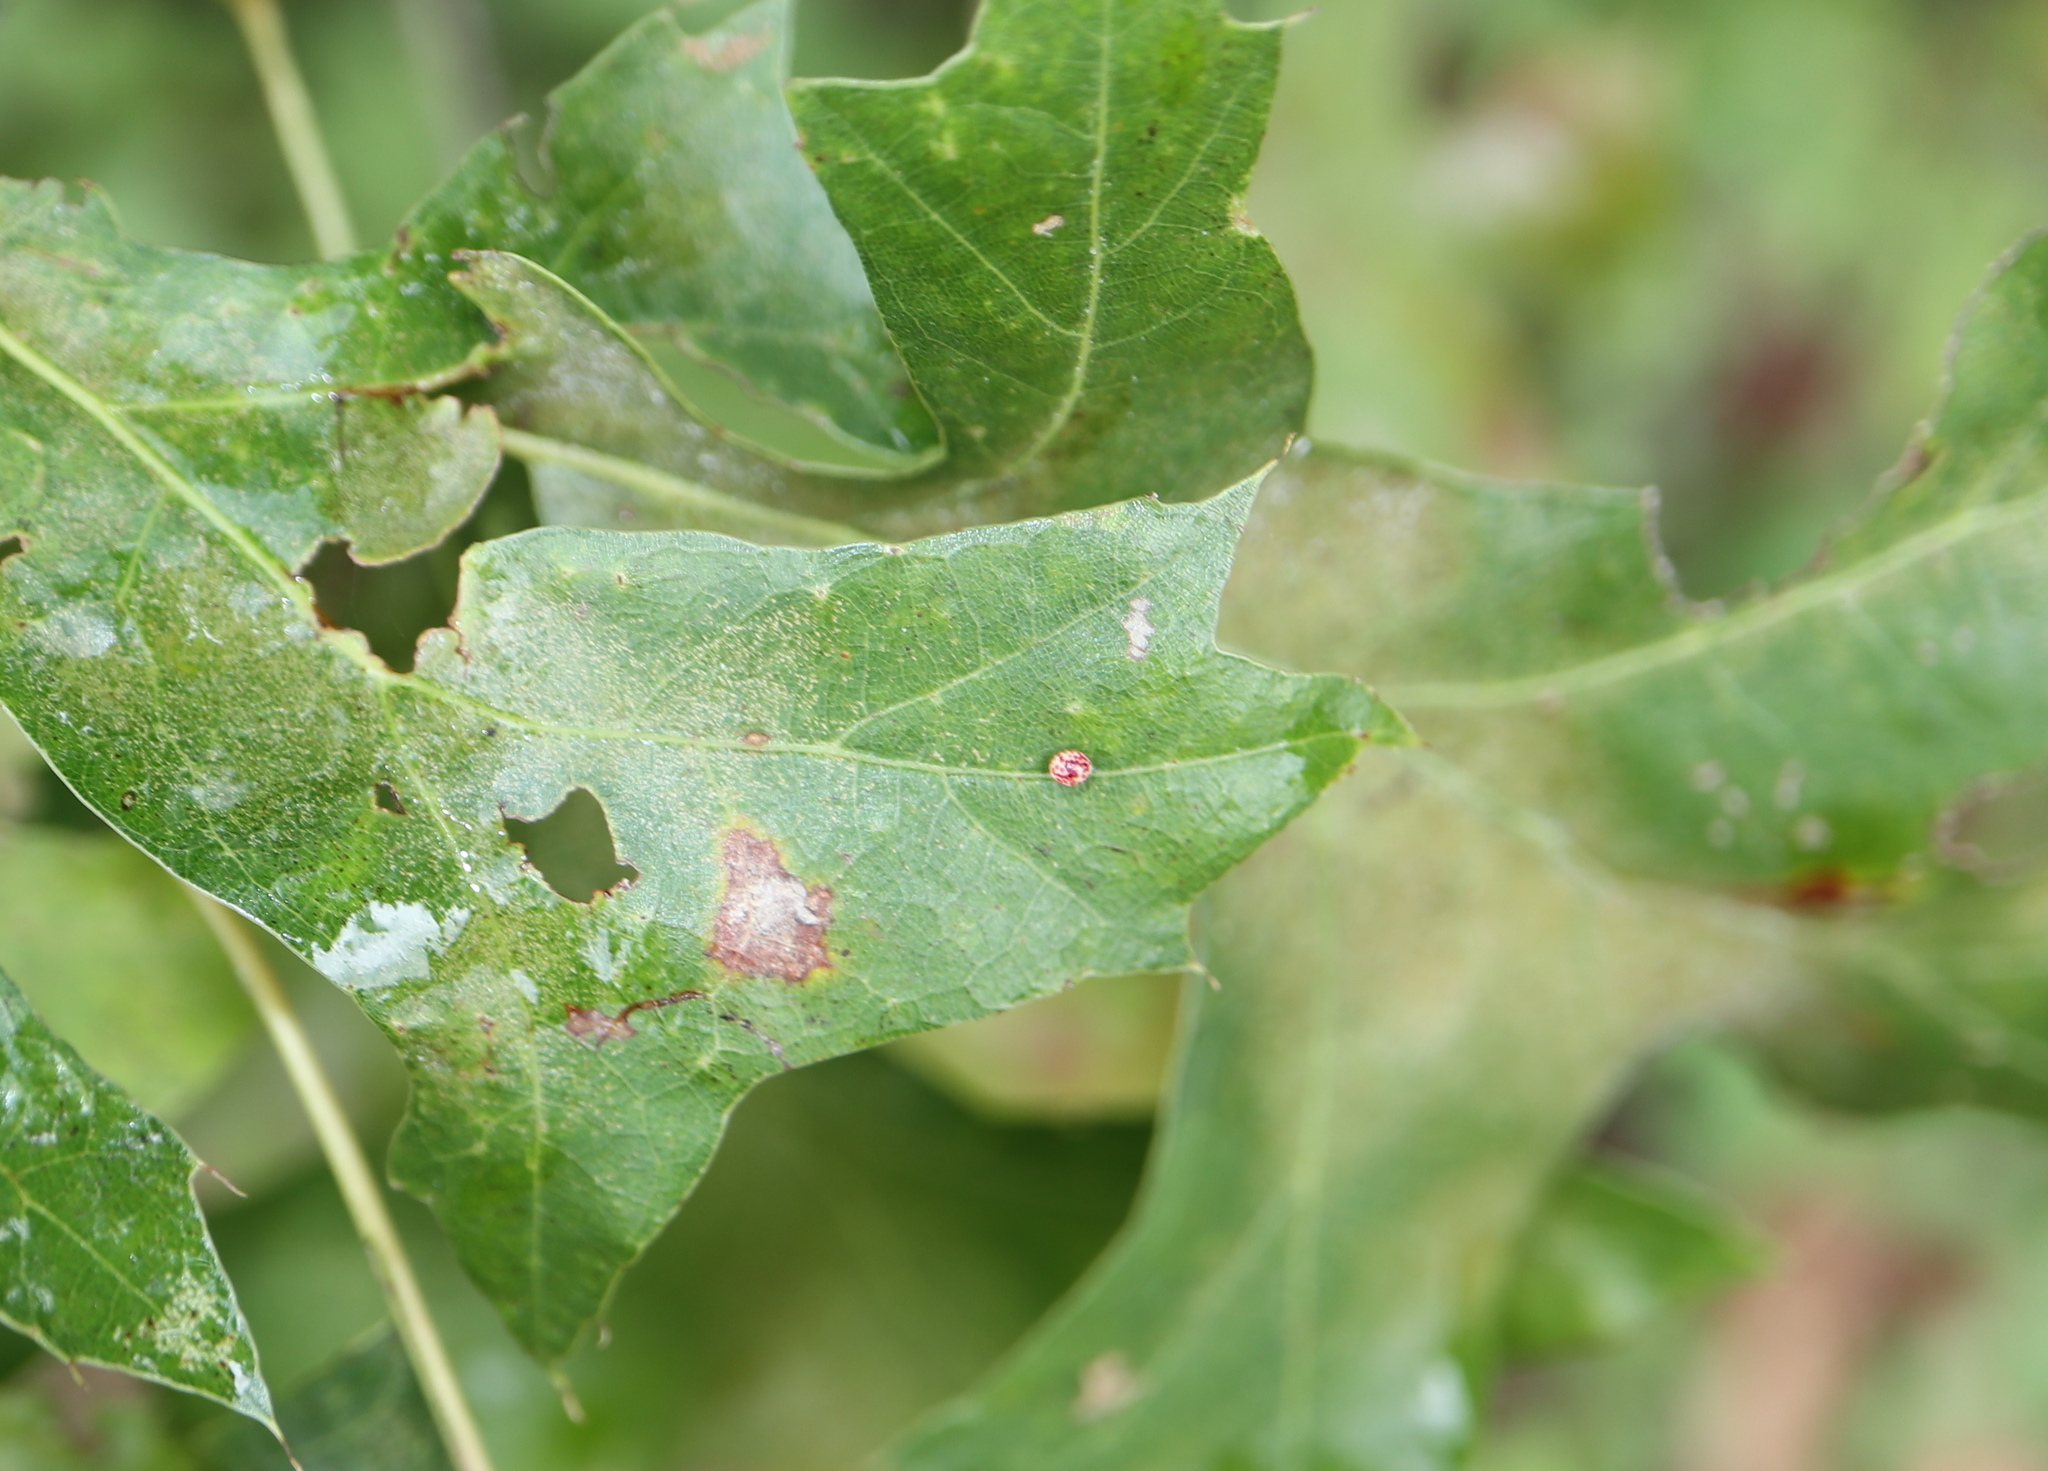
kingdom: Animalia
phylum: Arthropoda
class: Insecta
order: Hymenoptera
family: Cynipidae
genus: Zopheroteras
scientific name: Zopheroteras
